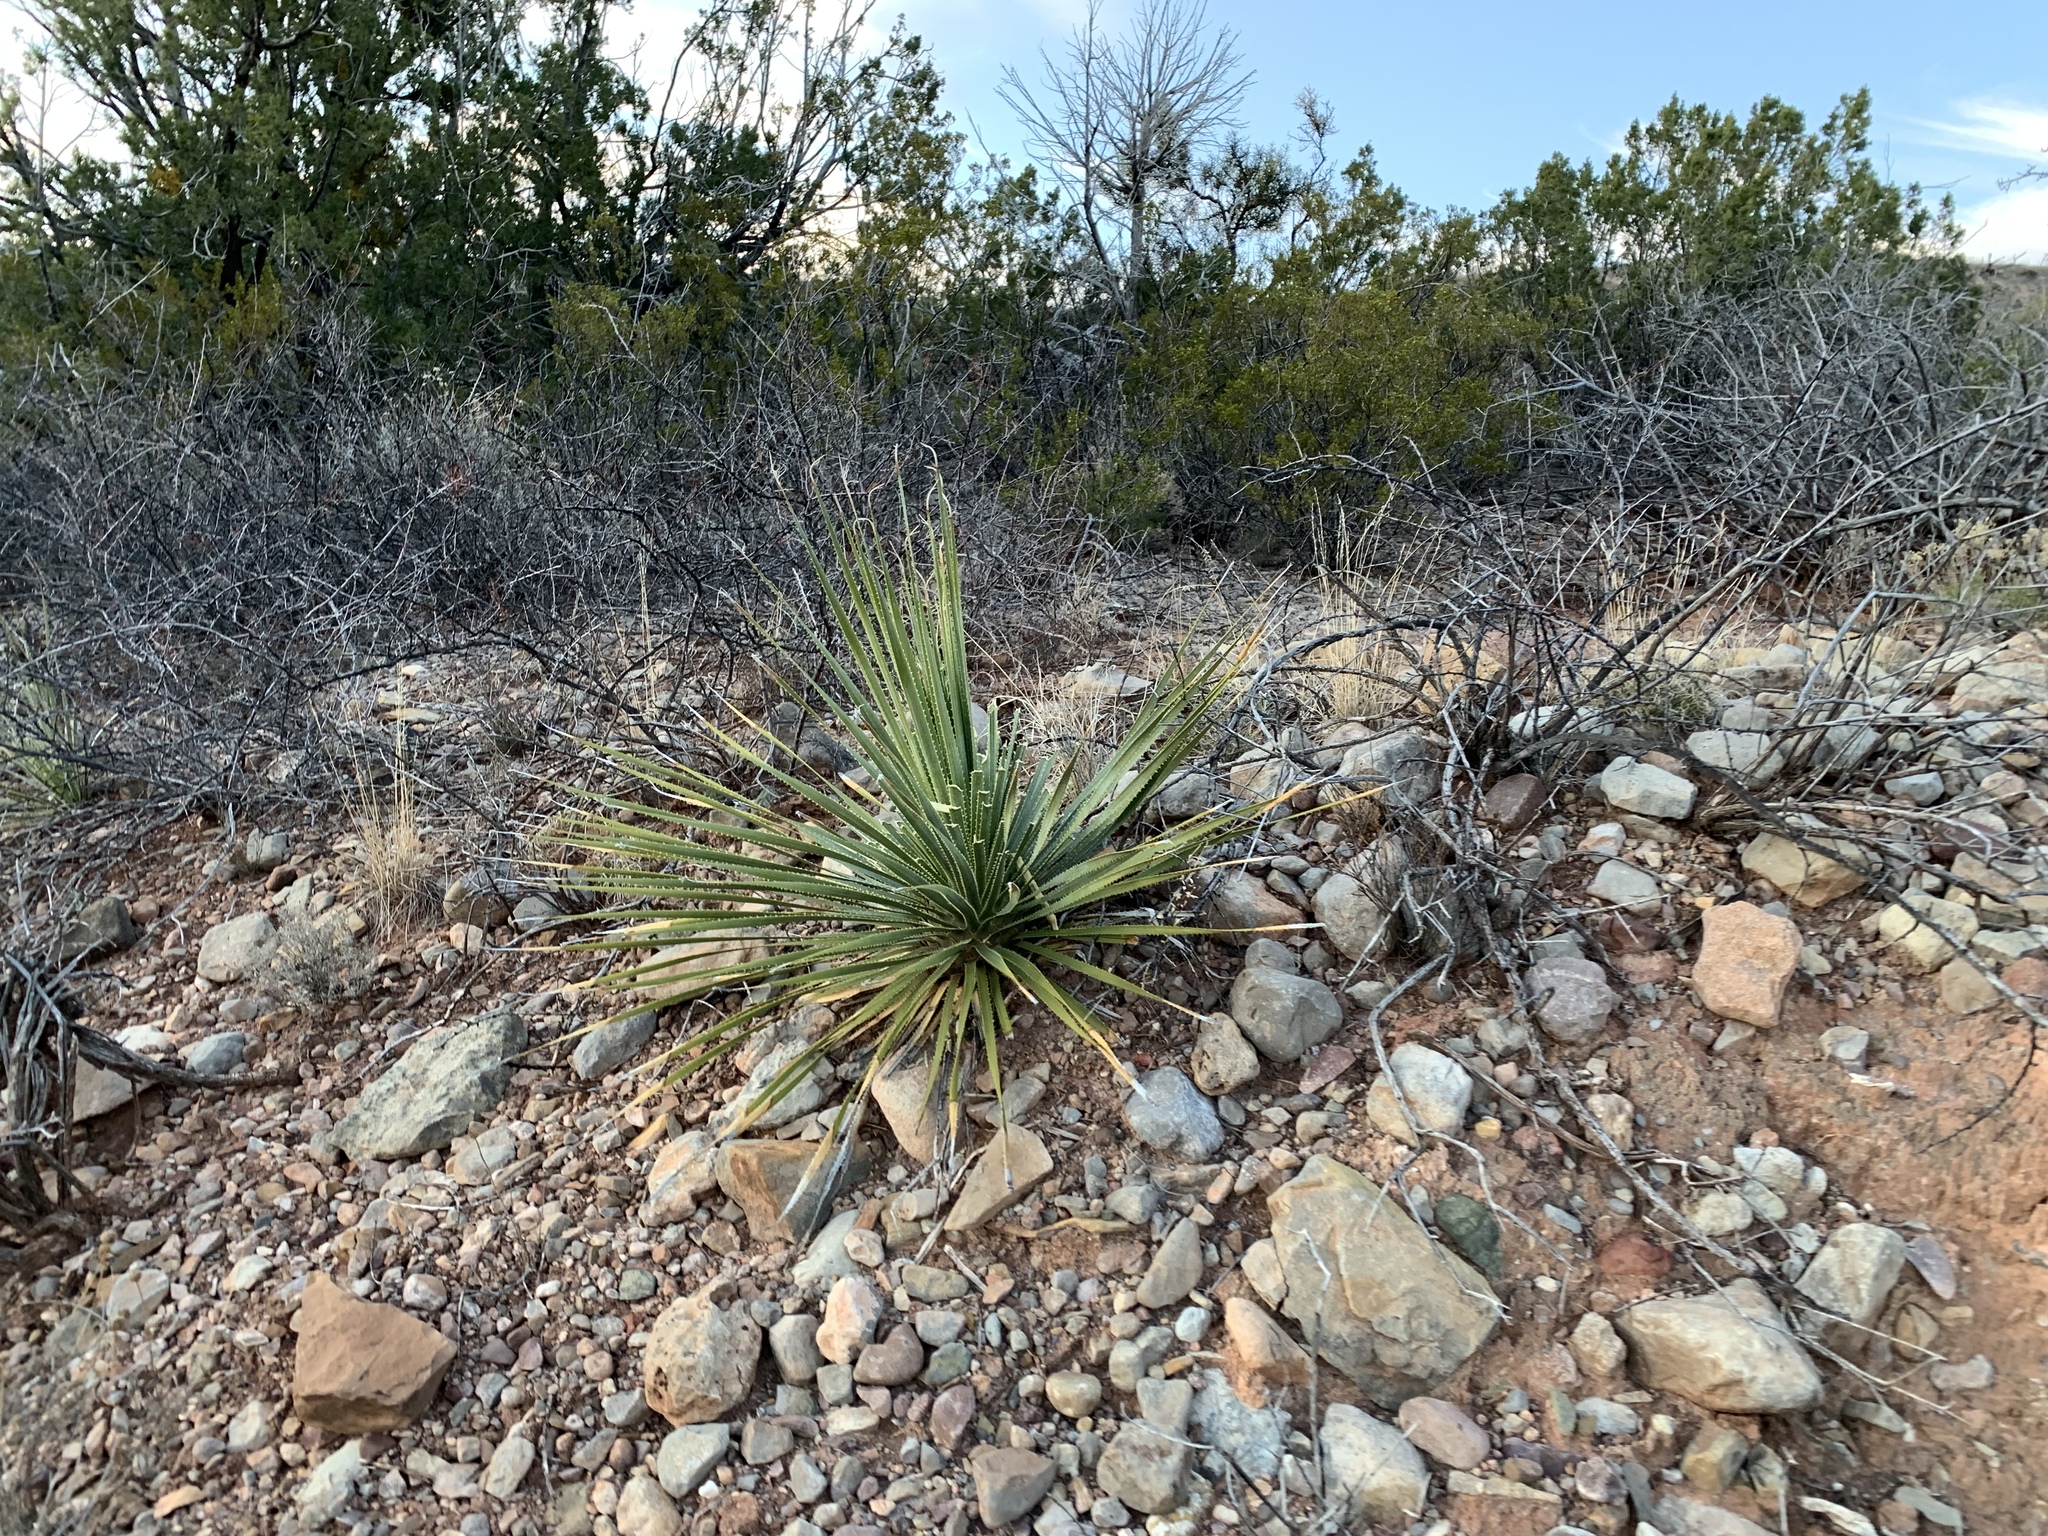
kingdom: Plantae
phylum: Tracheophyta
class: Liliopsida
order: Asparagales
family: Asparagaceae
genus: Dasylirion
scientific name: Dasylirion wheeleri
